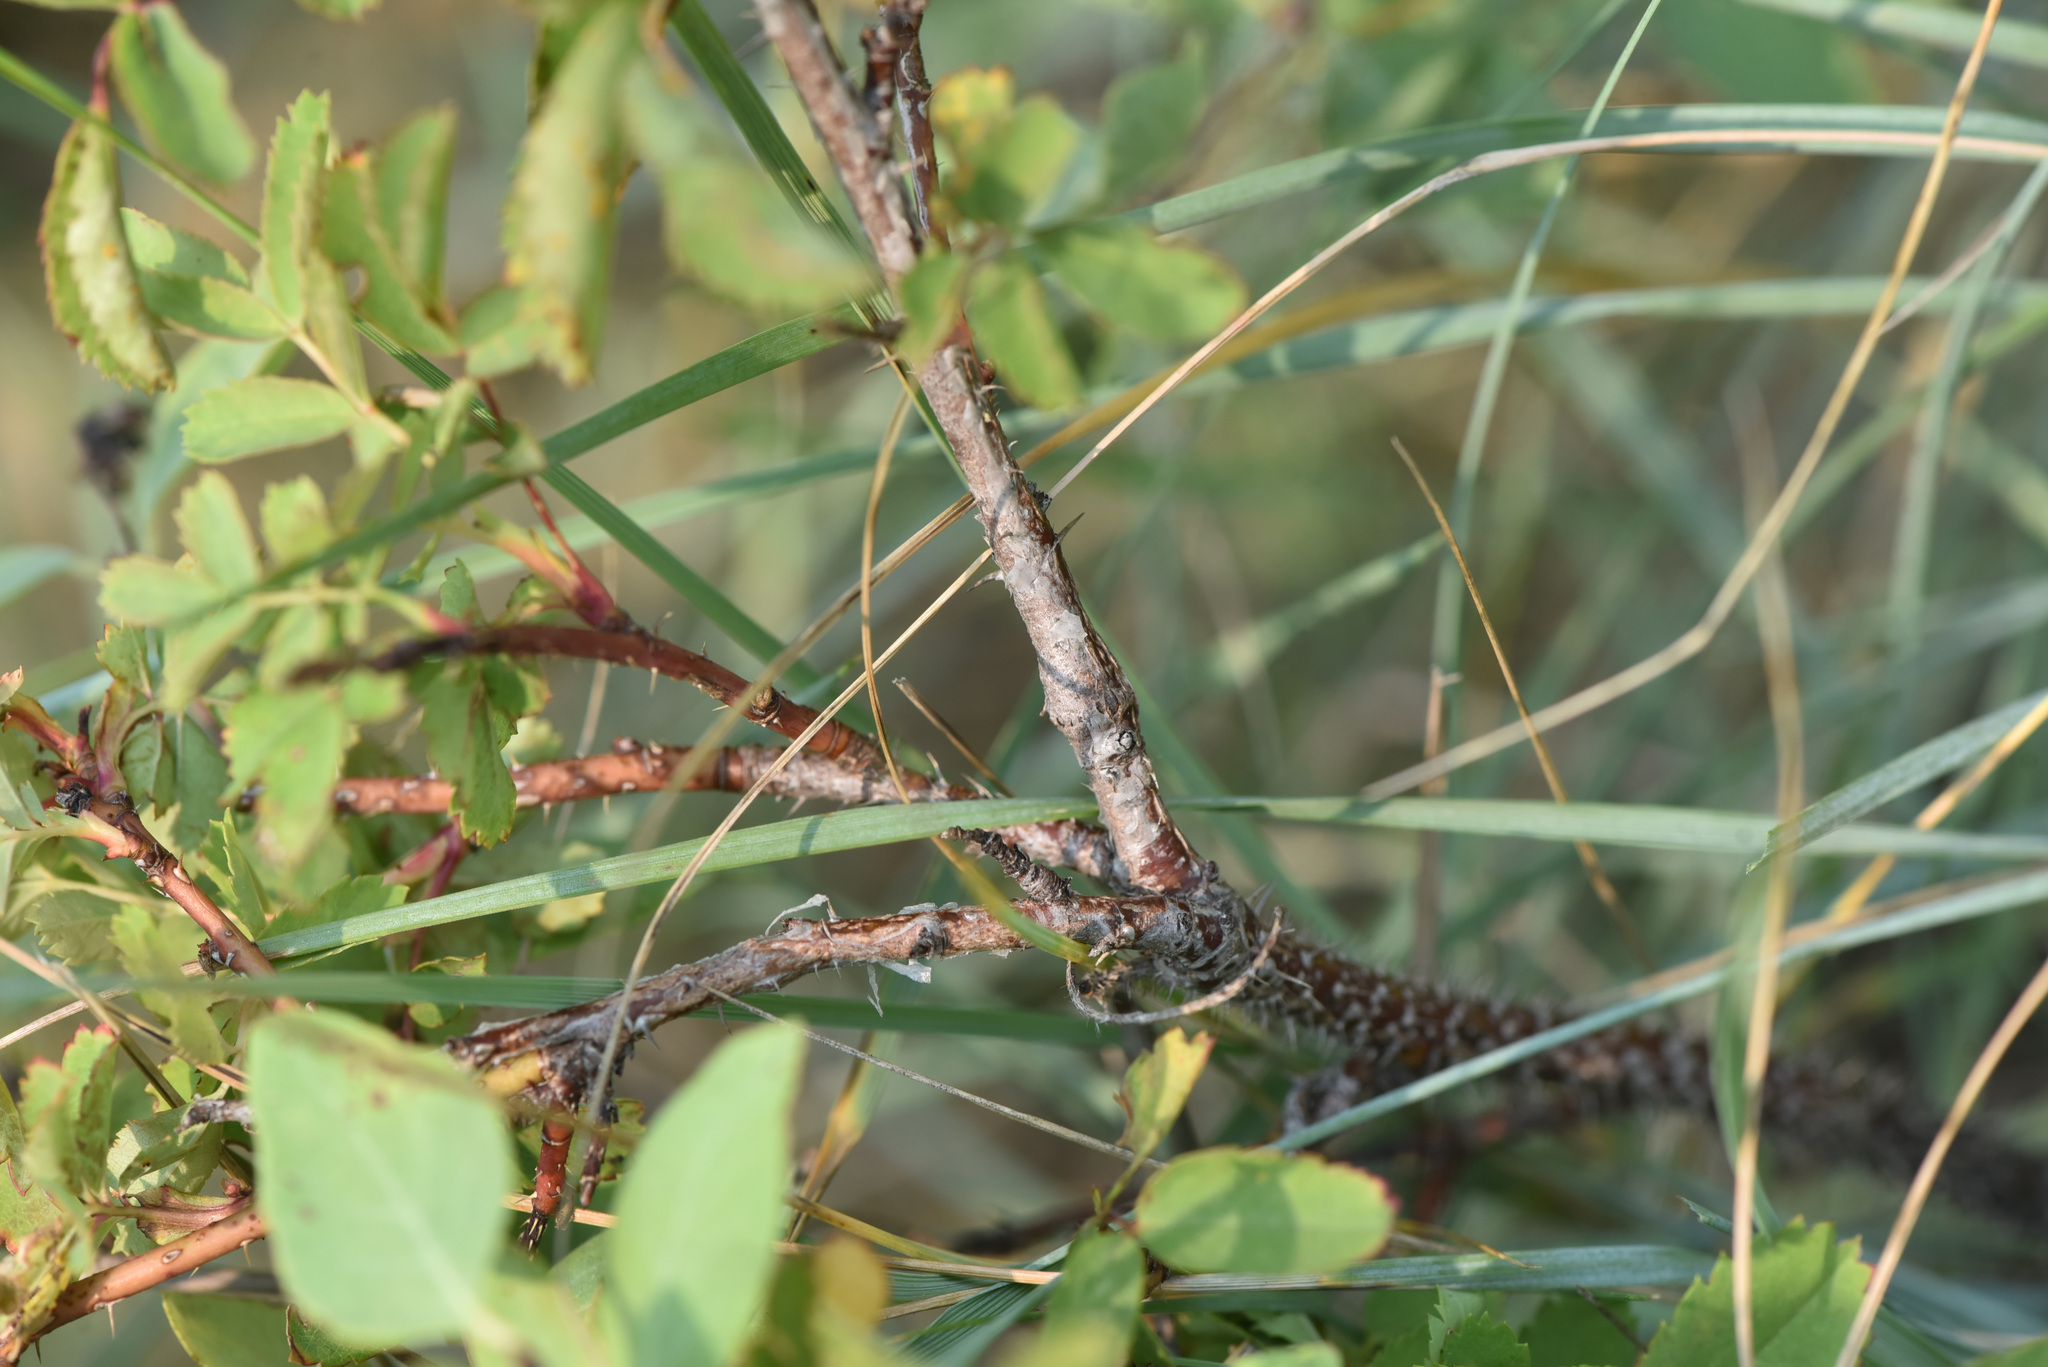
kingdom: Plantae
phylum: Tracheophyta
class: Magnoliopsida
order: Rosales
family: Rosaceae
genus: Rosa
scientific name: Rosa woodsii
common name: Woods's rose
